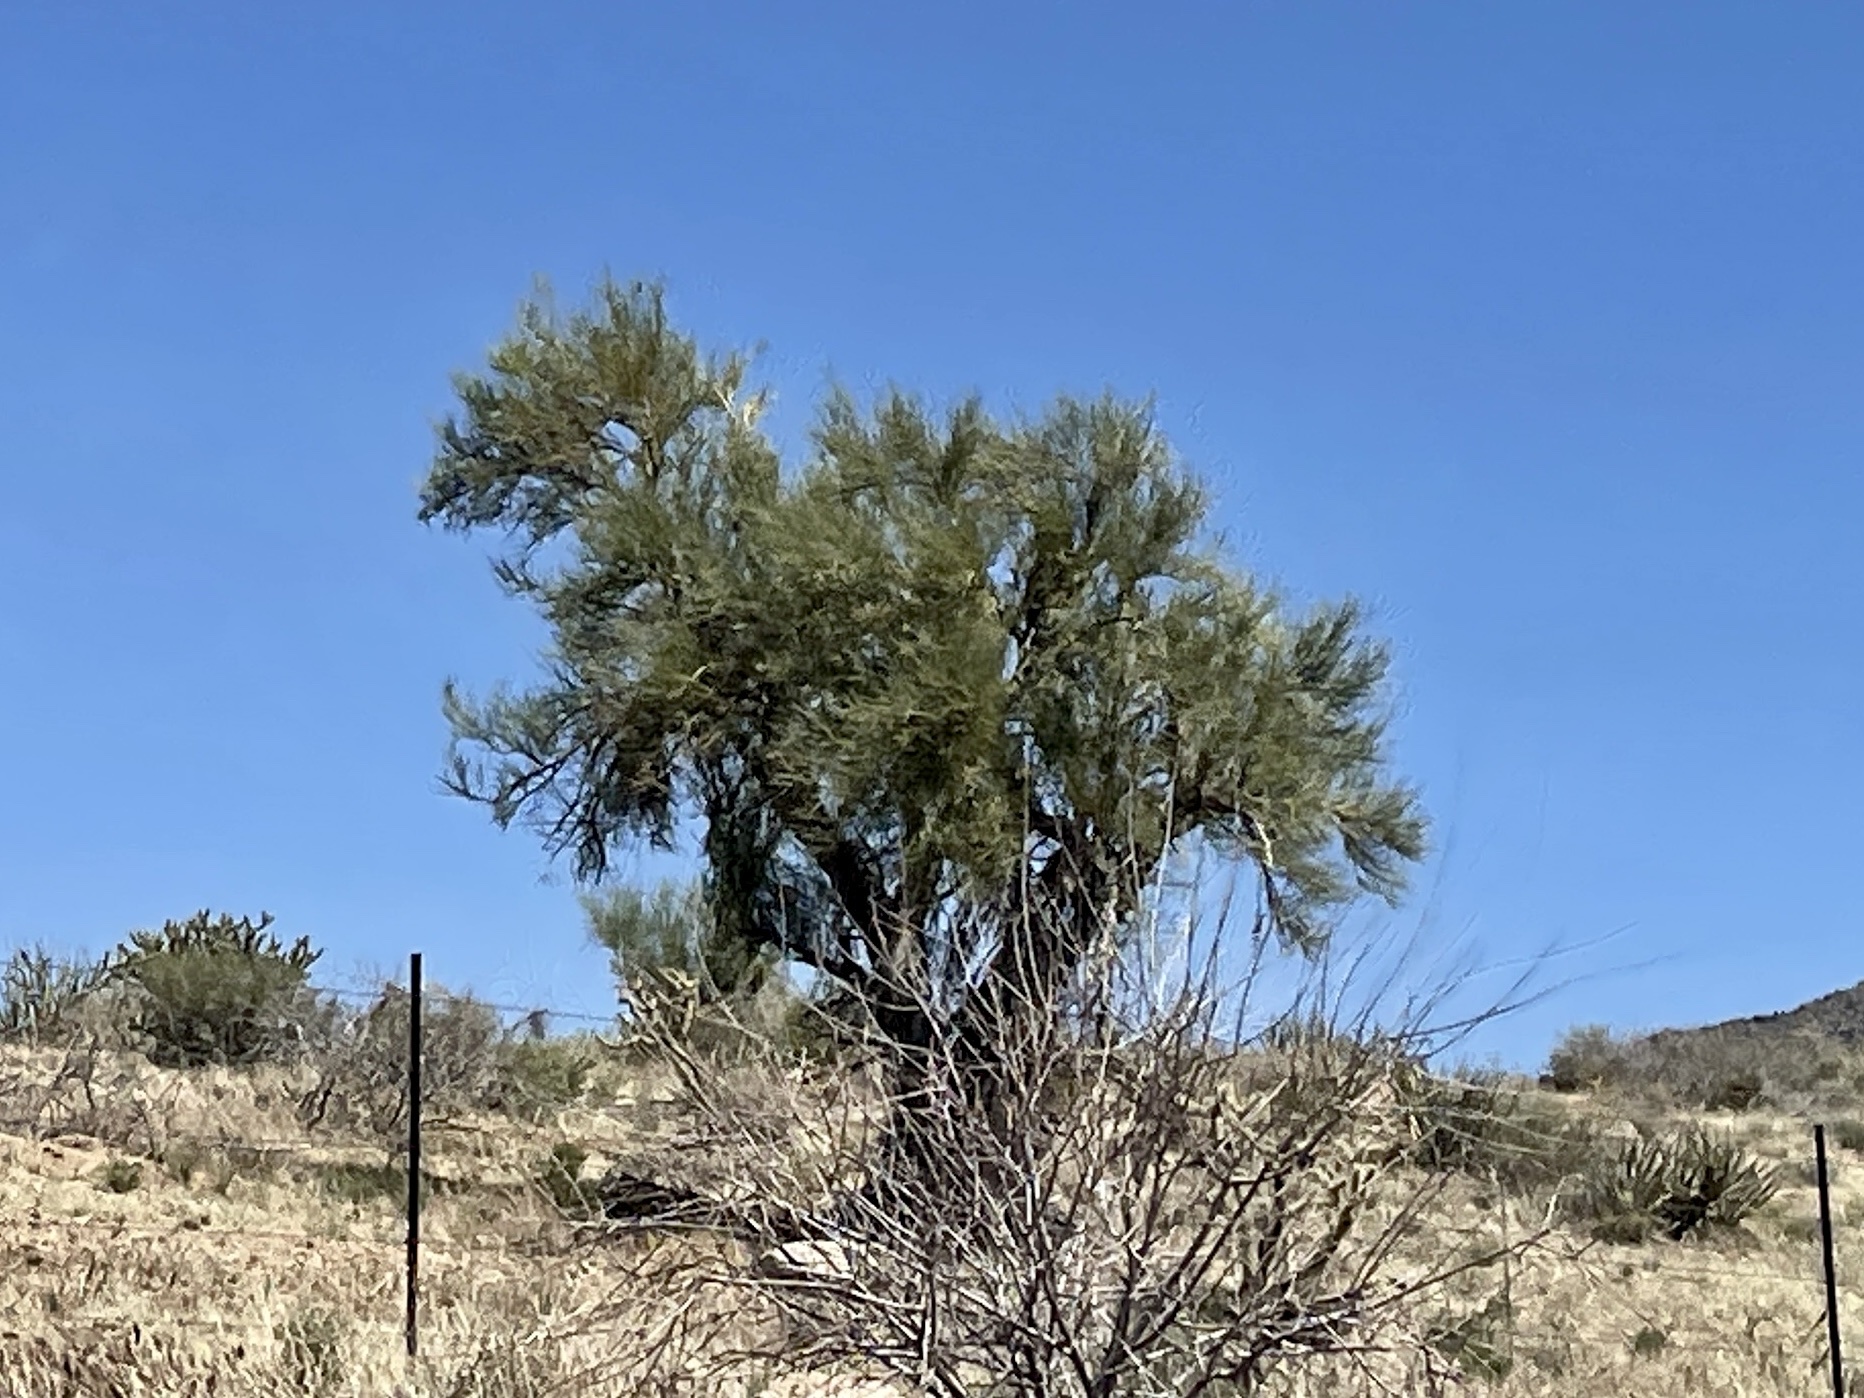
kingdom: Plantae
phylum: Tracheophyta
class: Magnoliopsida
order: Celastrales
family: Celastraceae
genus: Canotia
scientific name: Canotia holacantha
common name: Crucifixion thorns
